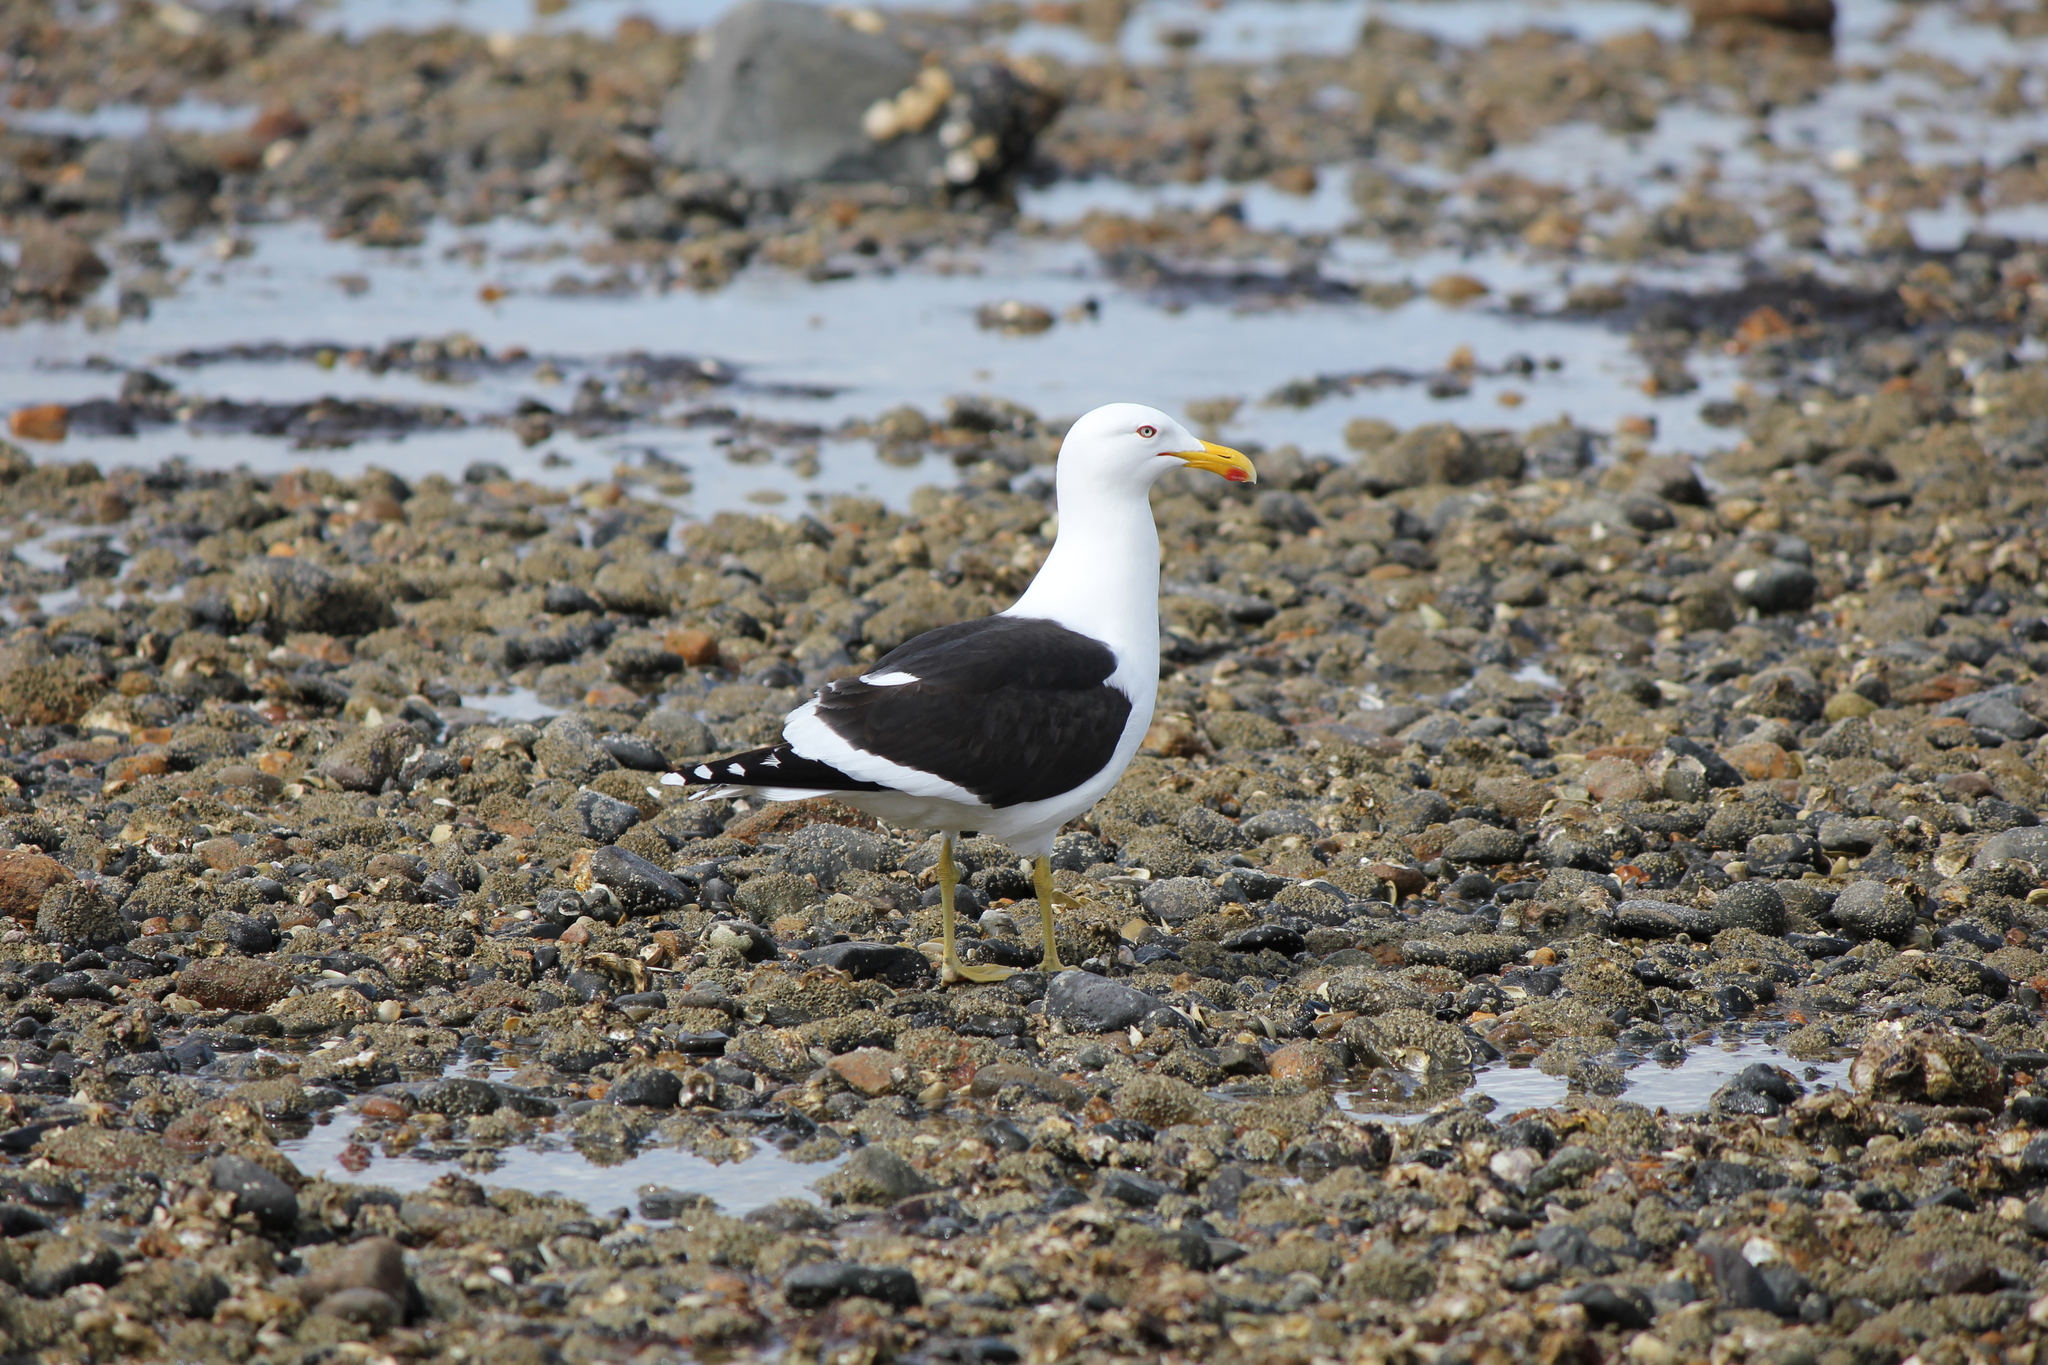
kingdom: Animalia
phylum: Chordata
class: Aves
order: Charadriiformes
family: Laridae
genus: Larus
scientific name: Larus dominicanus
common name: Kelp gull
